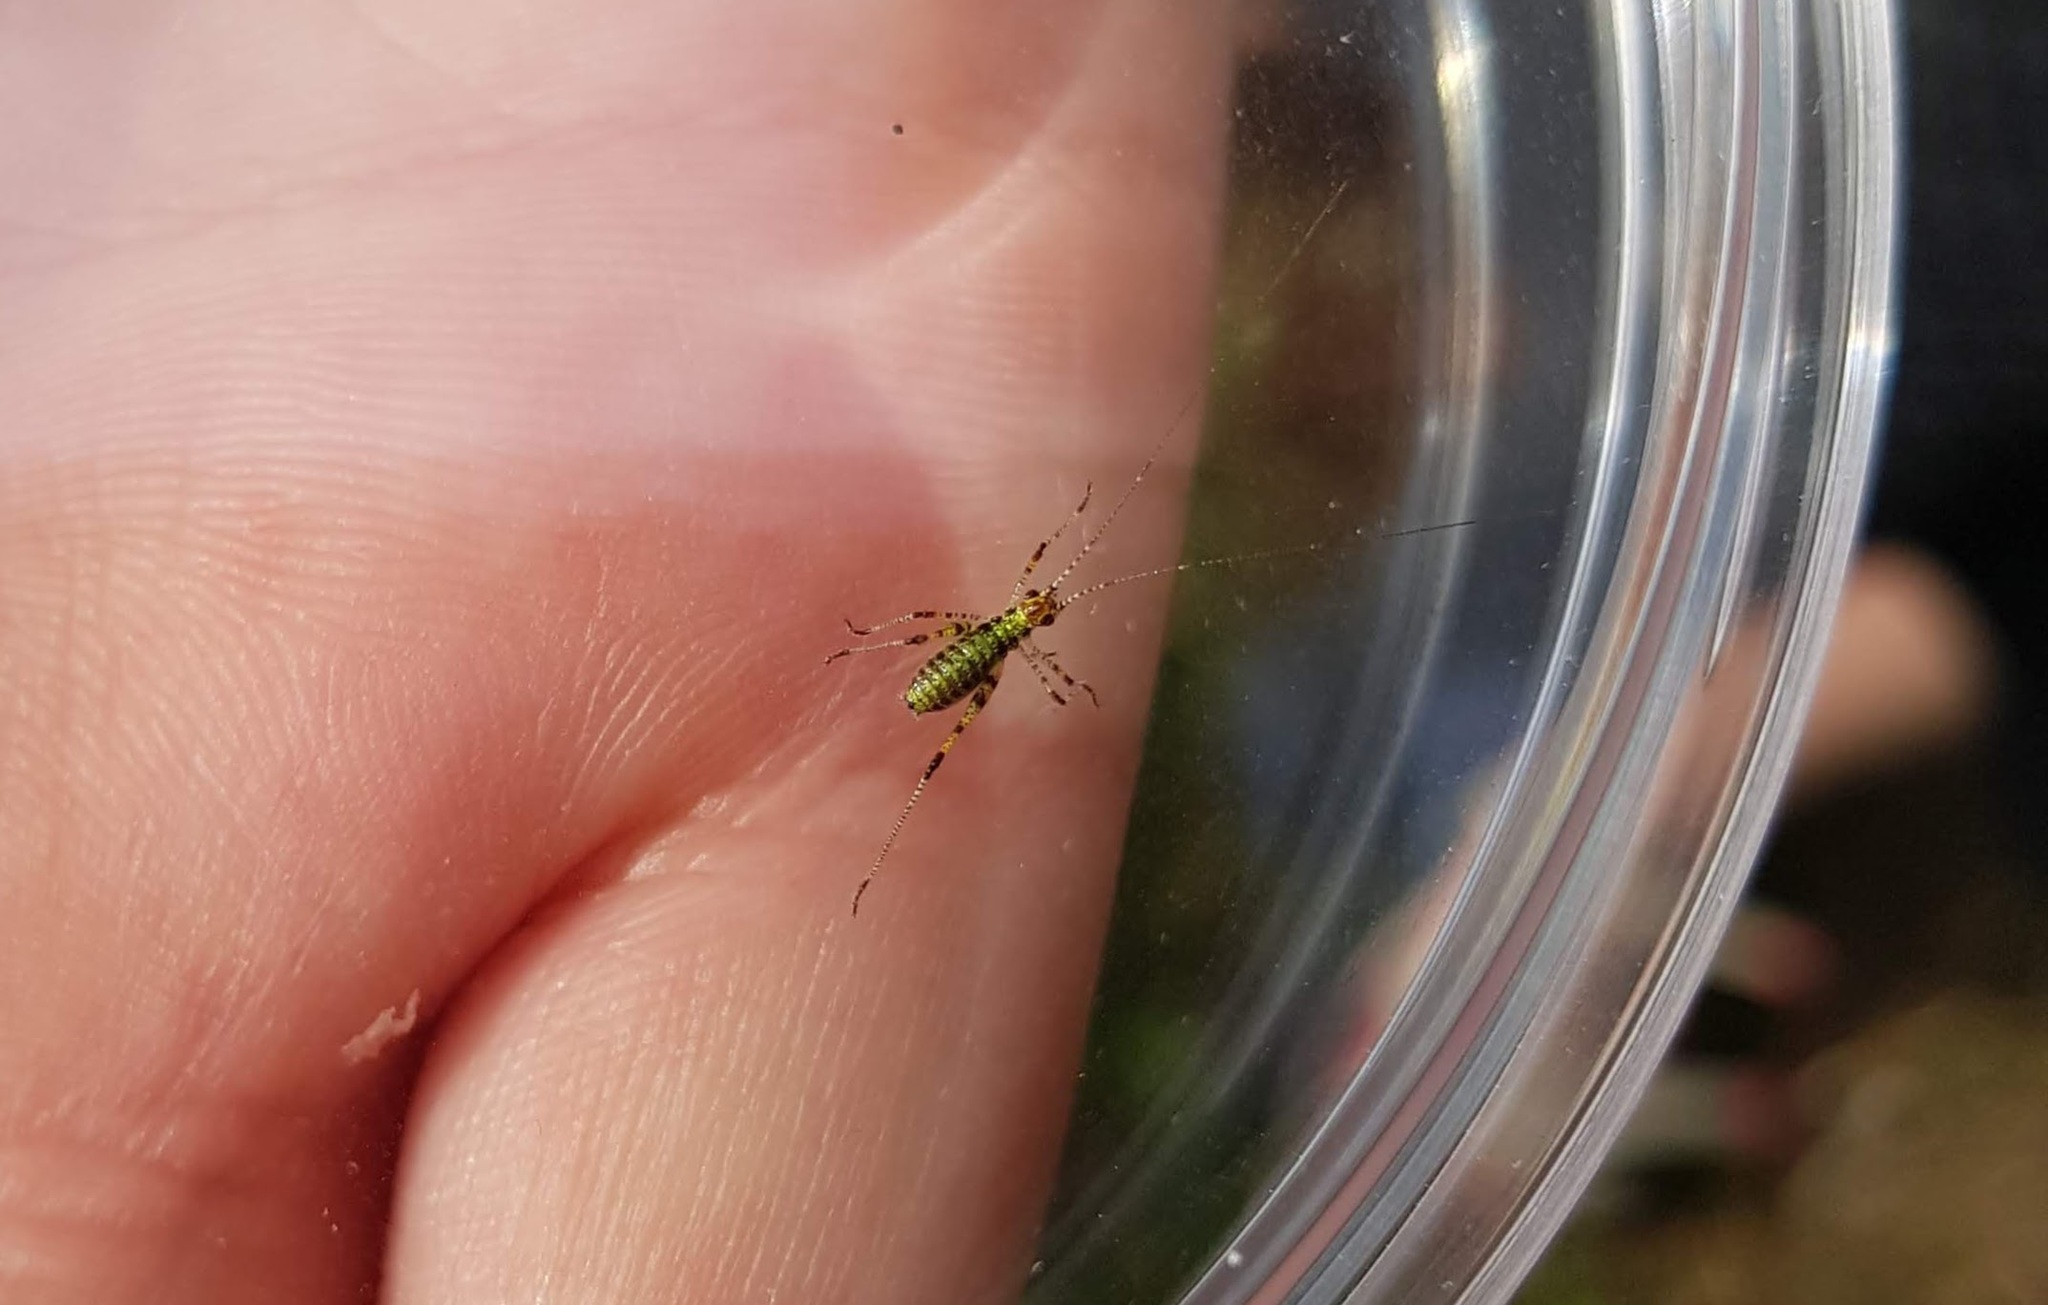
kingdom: Animalia
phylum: Arthropoda
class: Insecta
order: Orthoptera
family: Tettigoniidae
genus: Phaneroptera
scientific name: Phaneroptera nana
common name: Southern sickle bush-cricket
